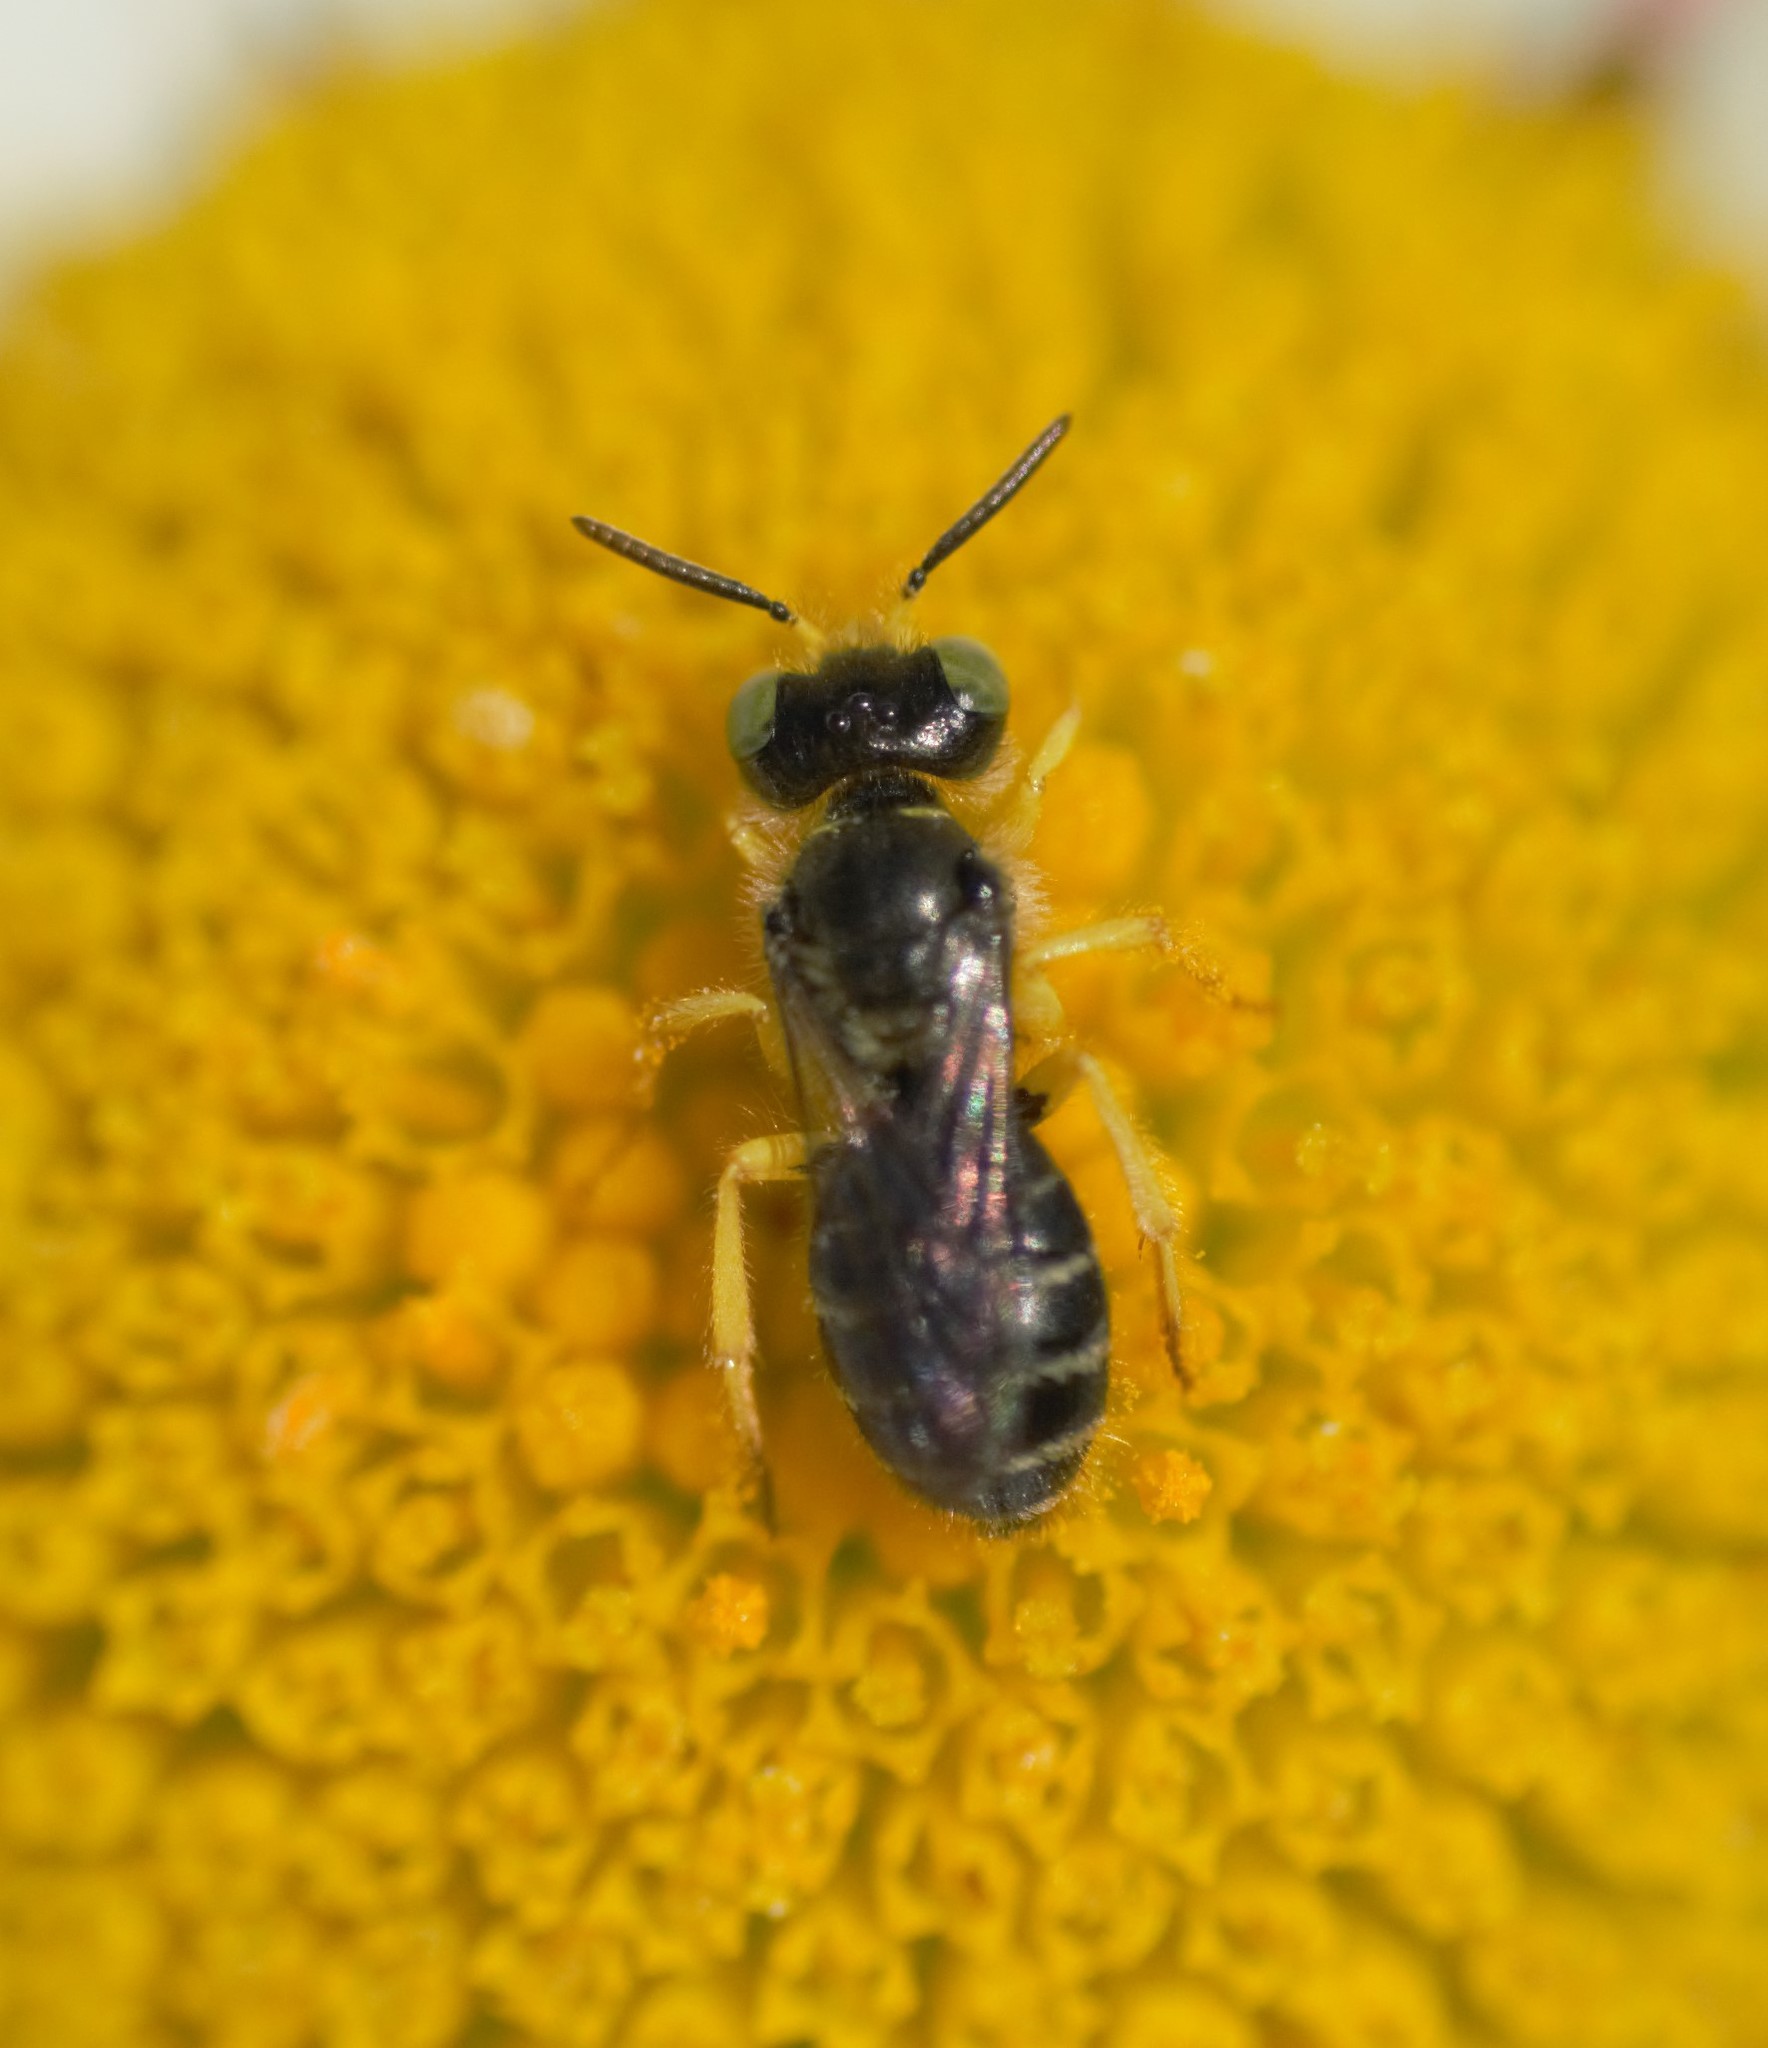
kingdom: Animalia
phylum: Arthropoda
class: Insecta
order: Hymenoptera
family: Andrenidae
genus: Calliopsis
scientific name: Calliopsis andreniformis
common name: Eastern calliopsis bee
